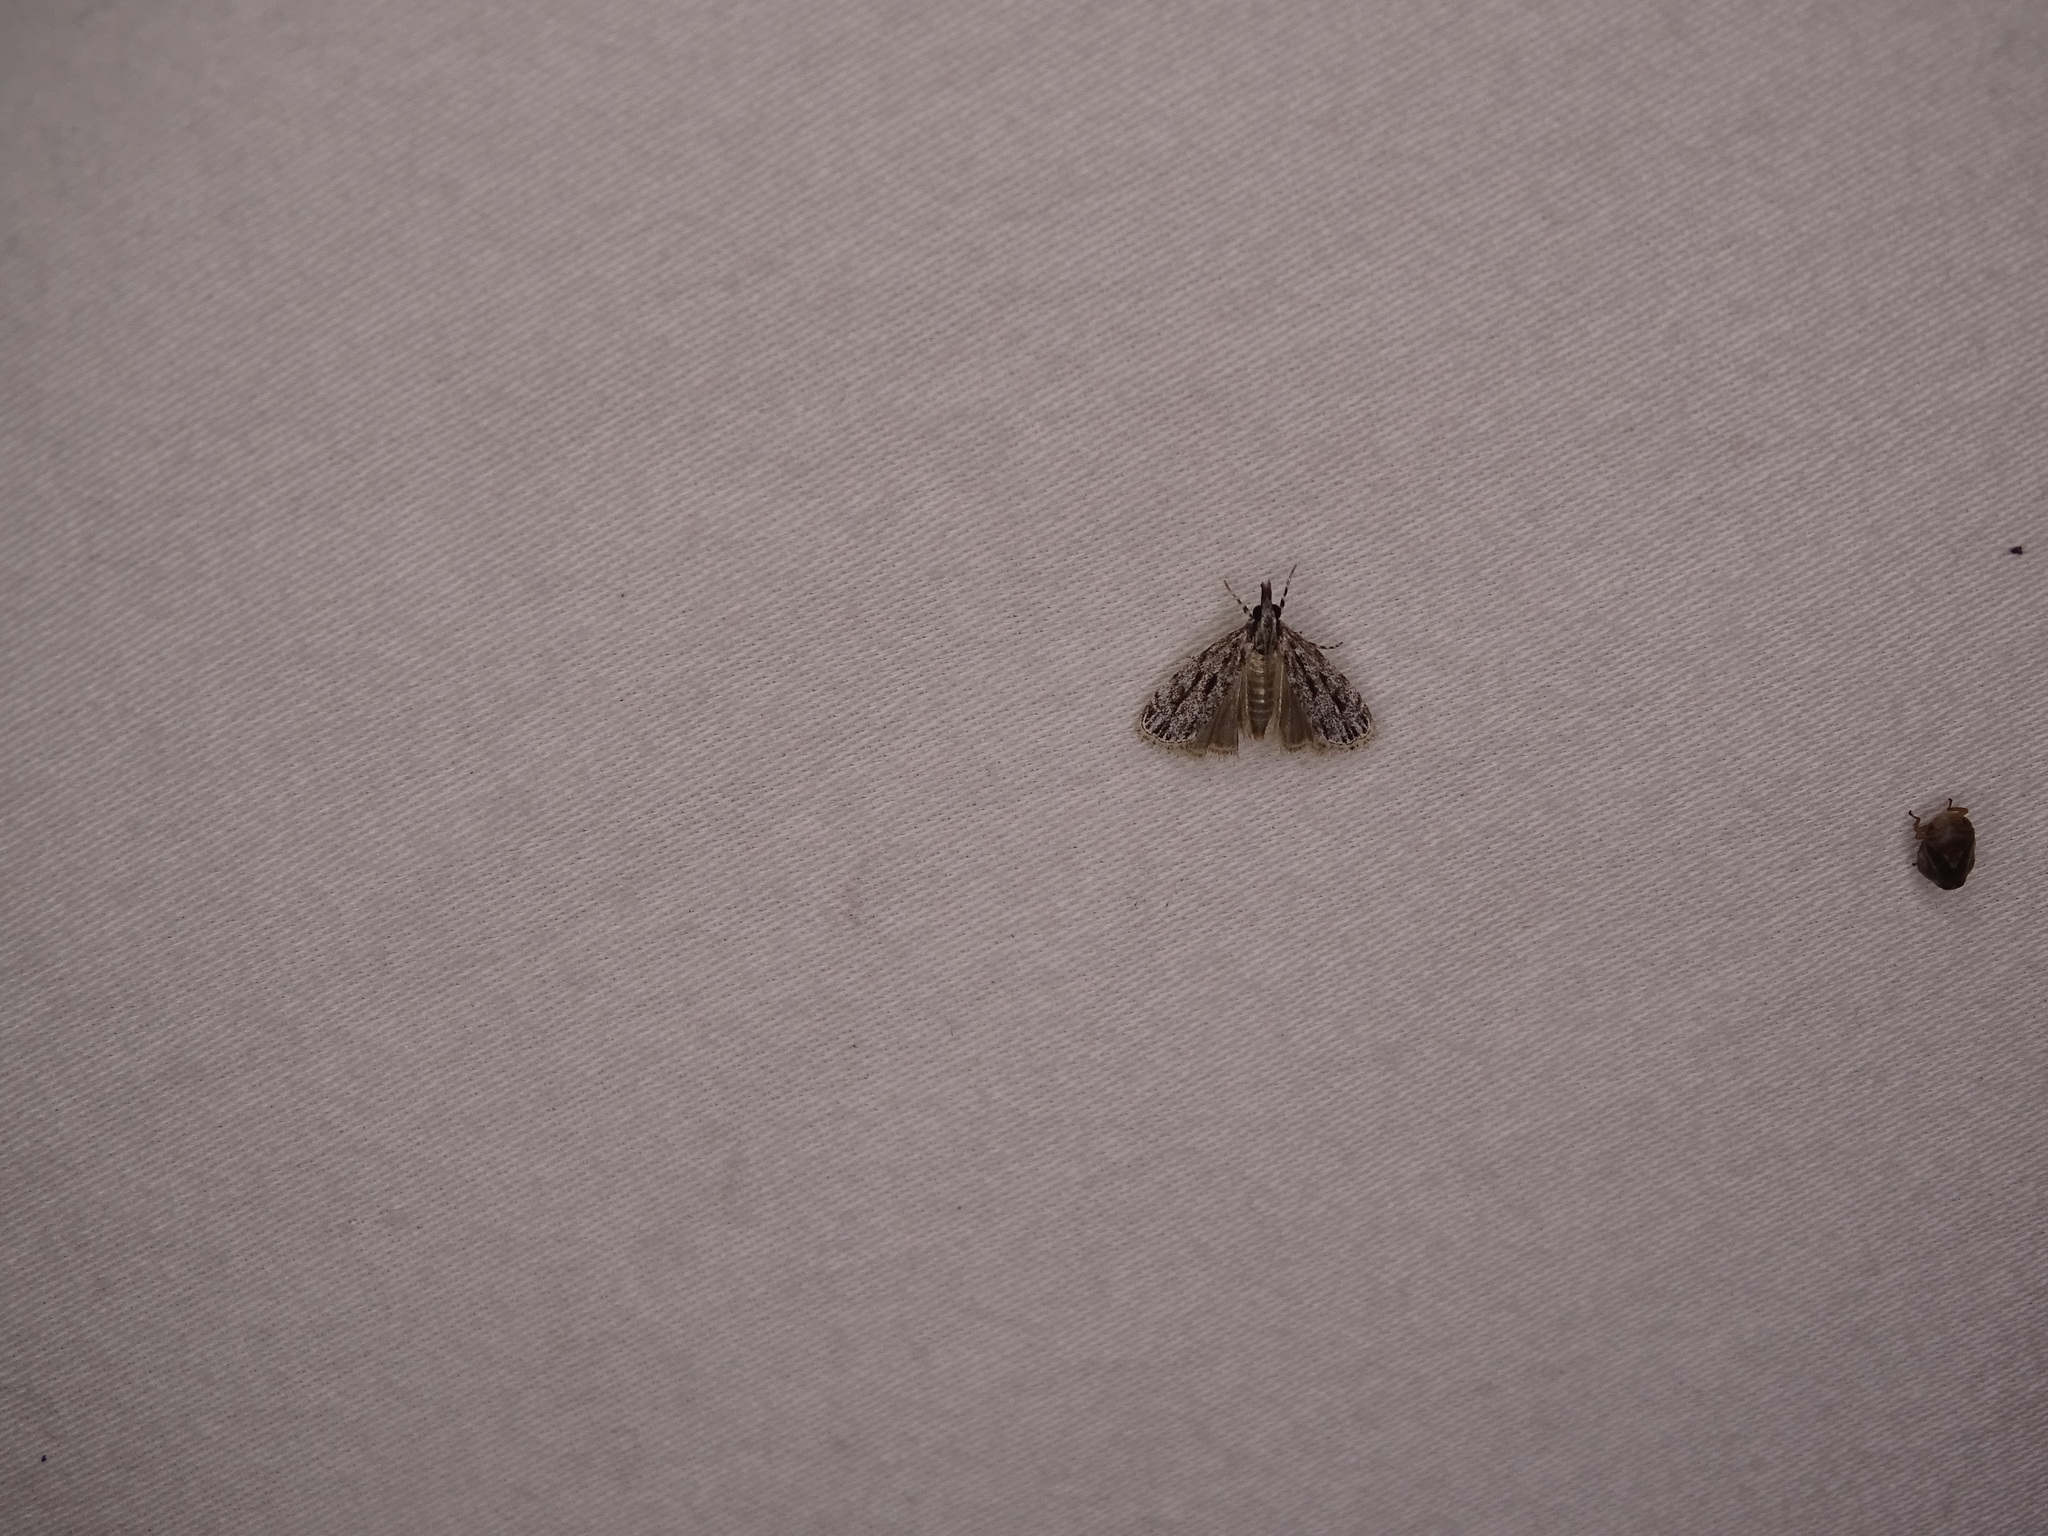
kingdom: Animalia
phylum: Arthropoda
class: Insecta
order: Lepidoptera
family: Crambidae
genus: Eudonia
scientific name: Eudonia strigalis
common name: Striped eudonia moth
